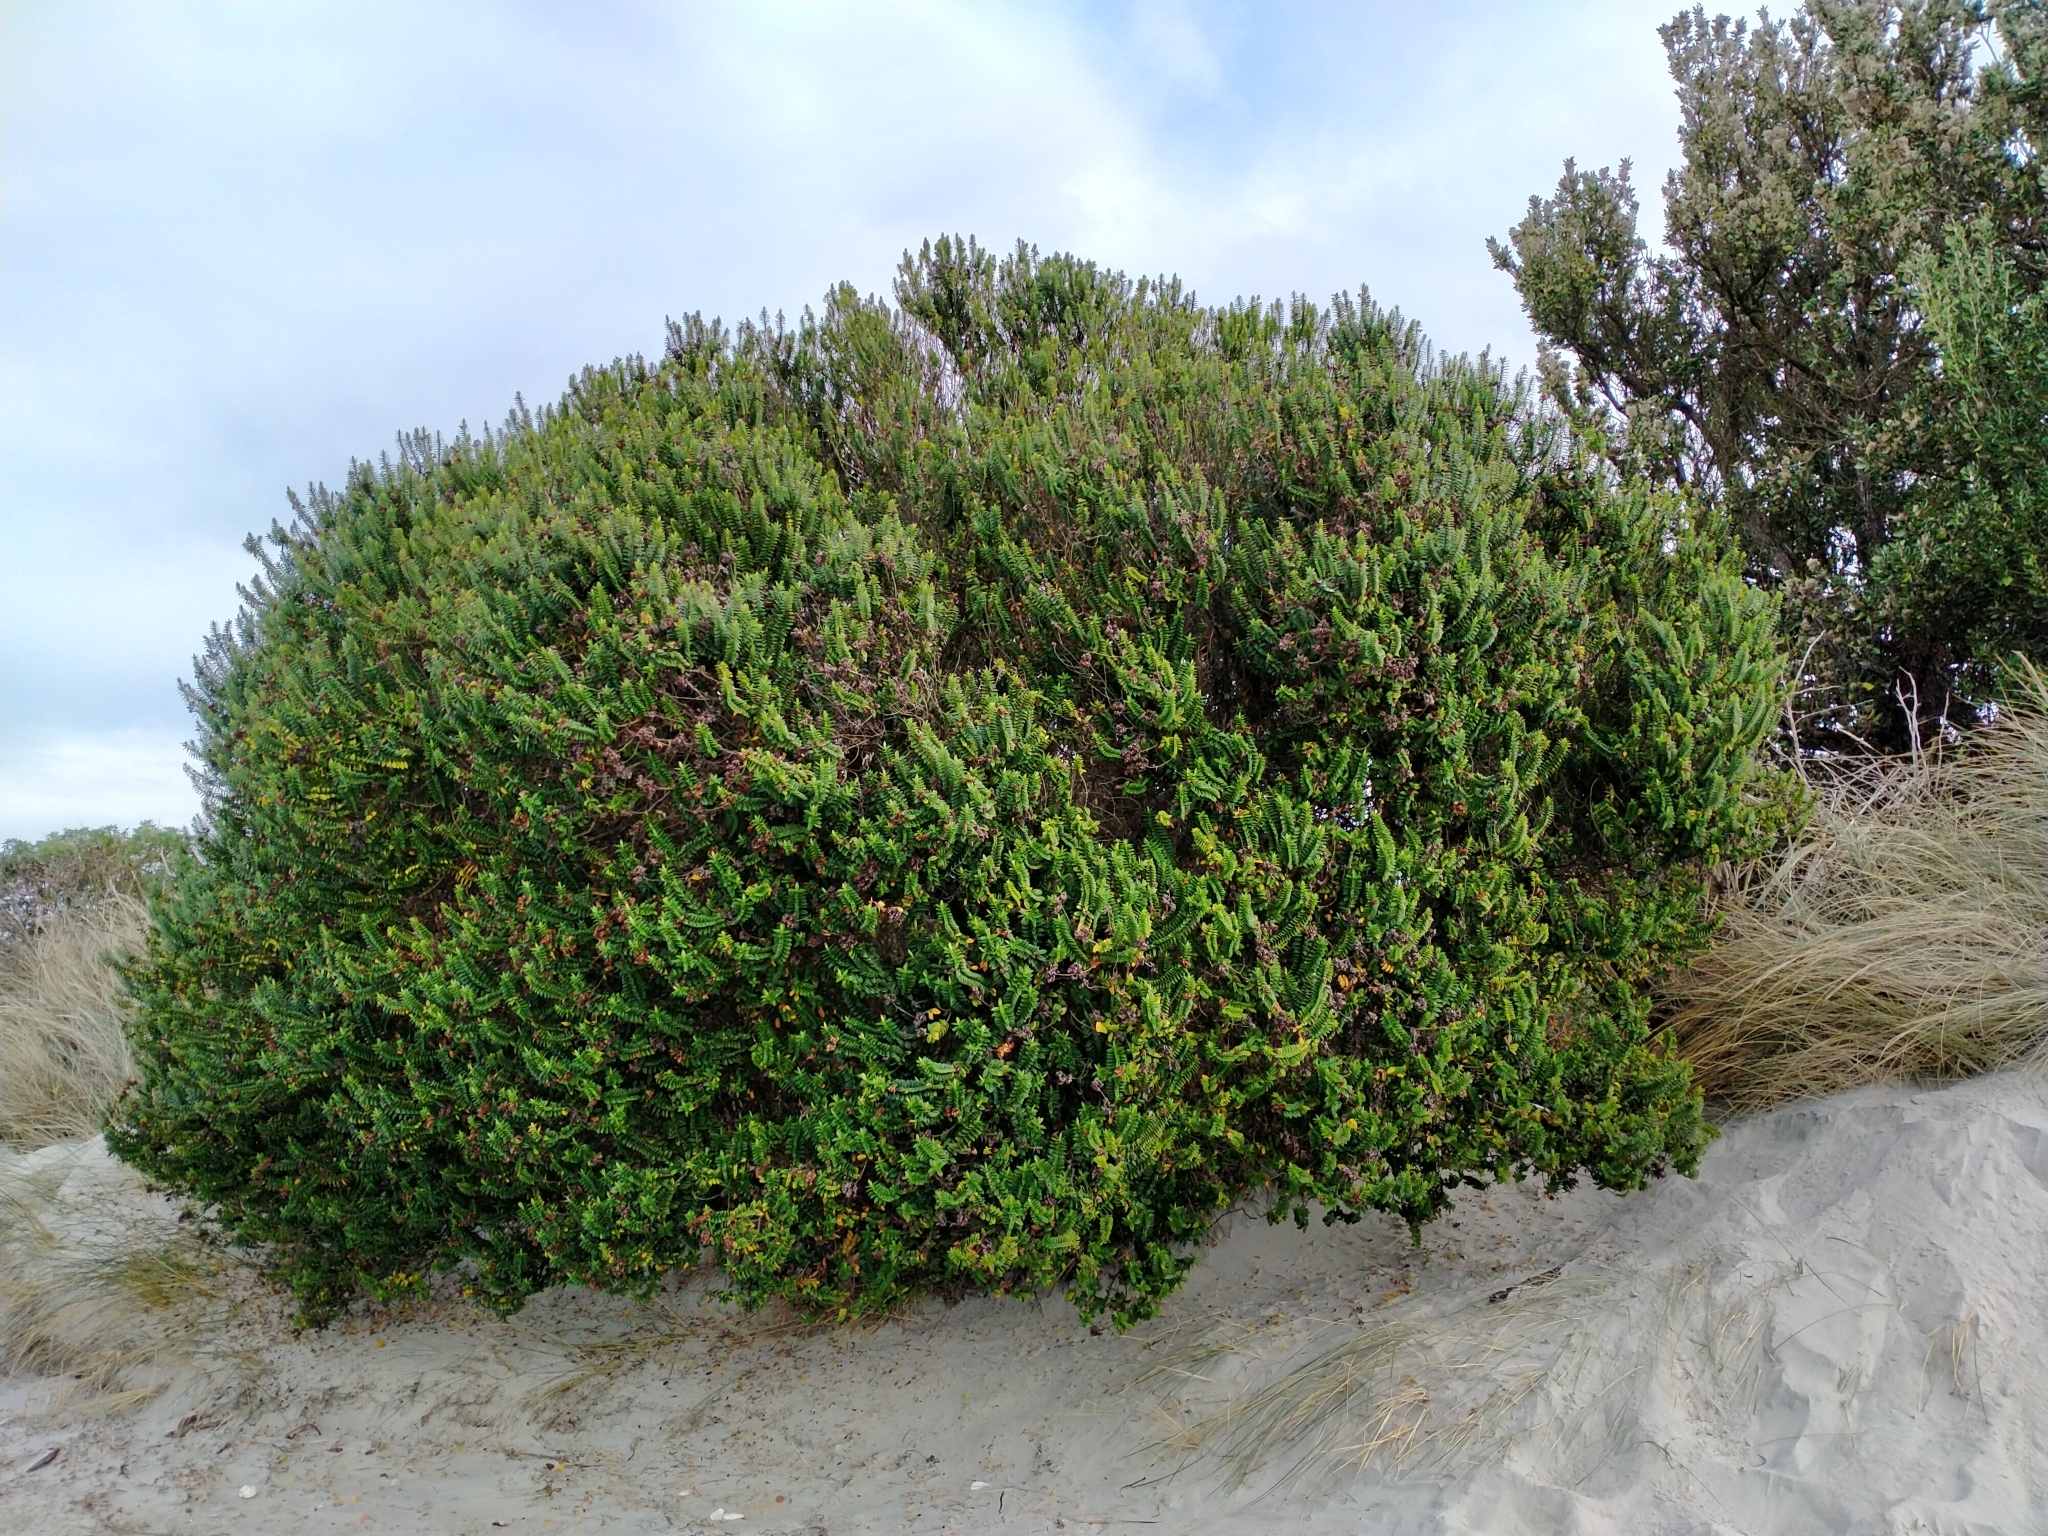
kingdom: Plantae
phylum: Tracheophyta
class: Magnoliopsida
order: Lamiales
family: Plantaginaceae
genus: Veronica
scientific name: Veronica elliptica
